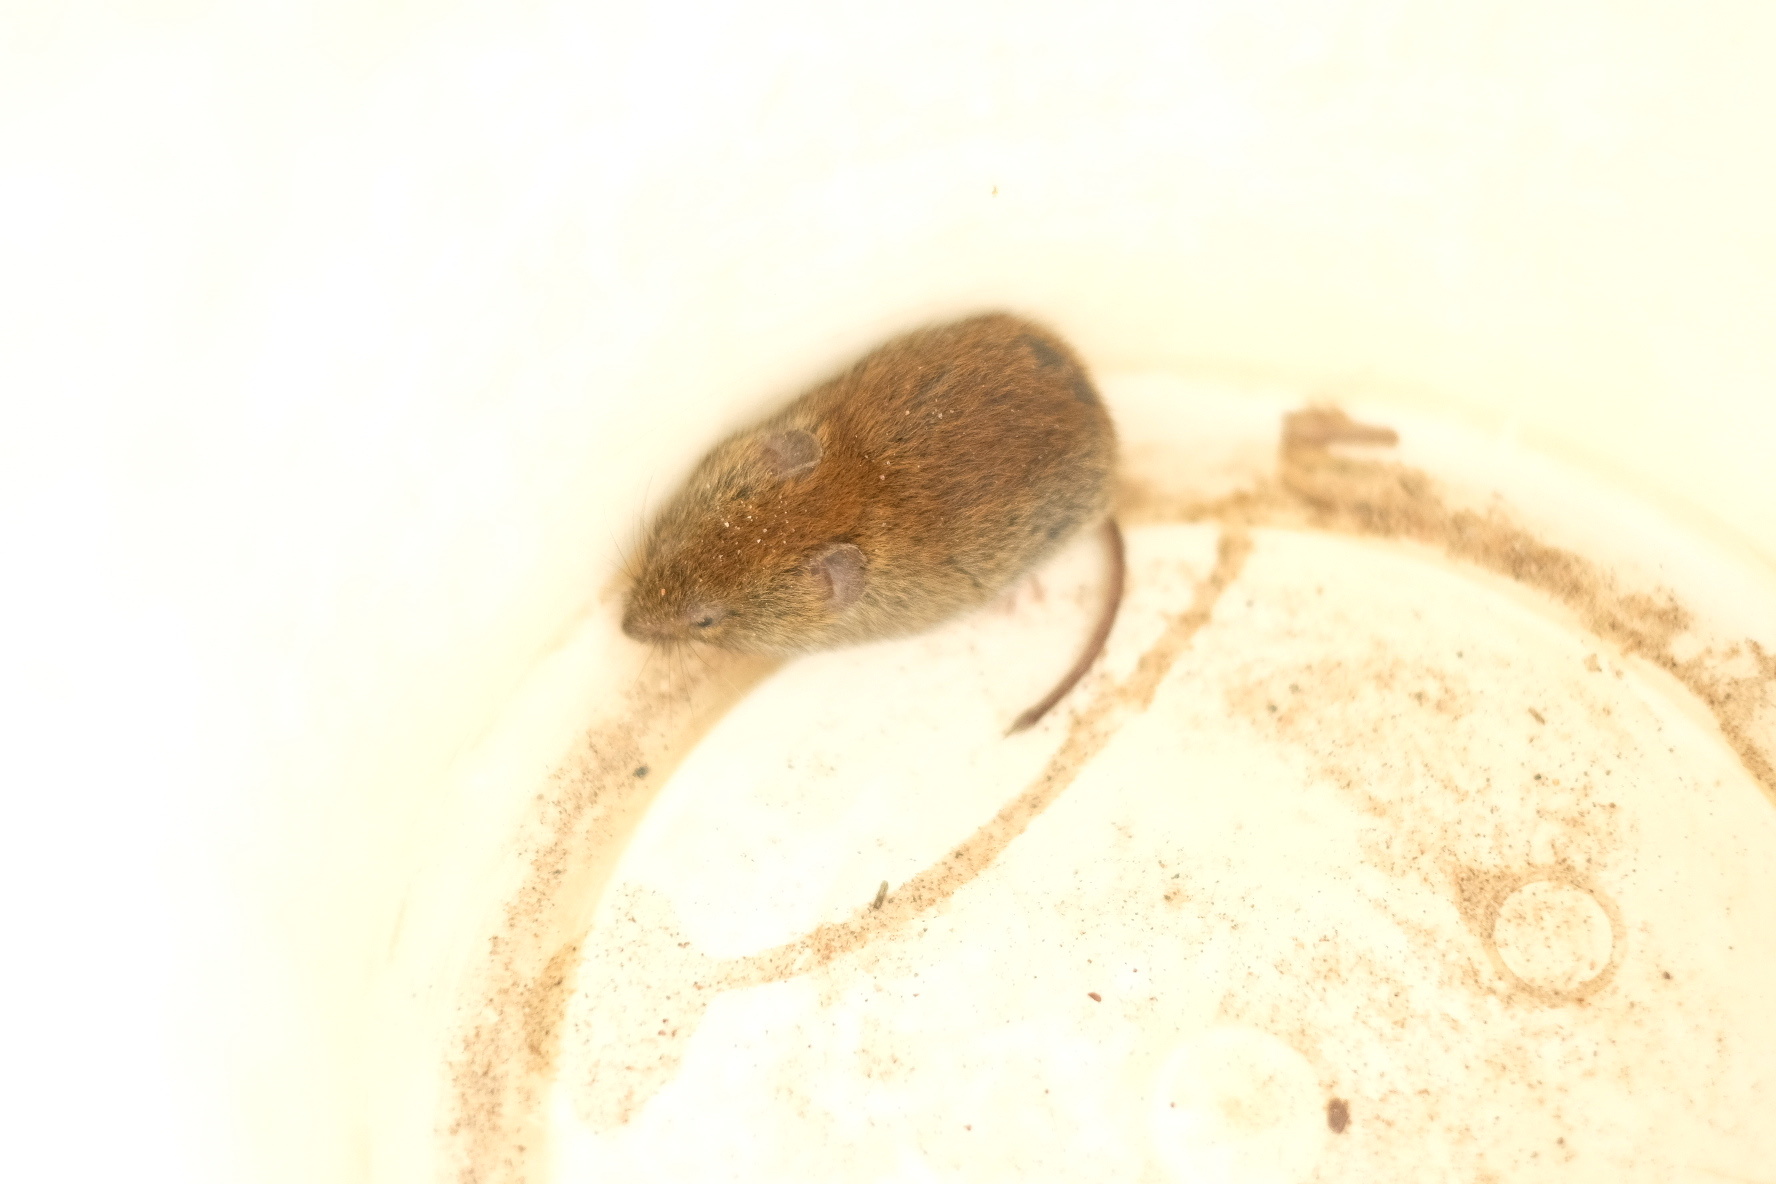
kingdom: Animalia
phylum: Chordata
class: Mammalia
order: Rodentia
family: Cricetidae
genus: Myodes
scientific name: Myodes glareolus
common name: Bank vole
